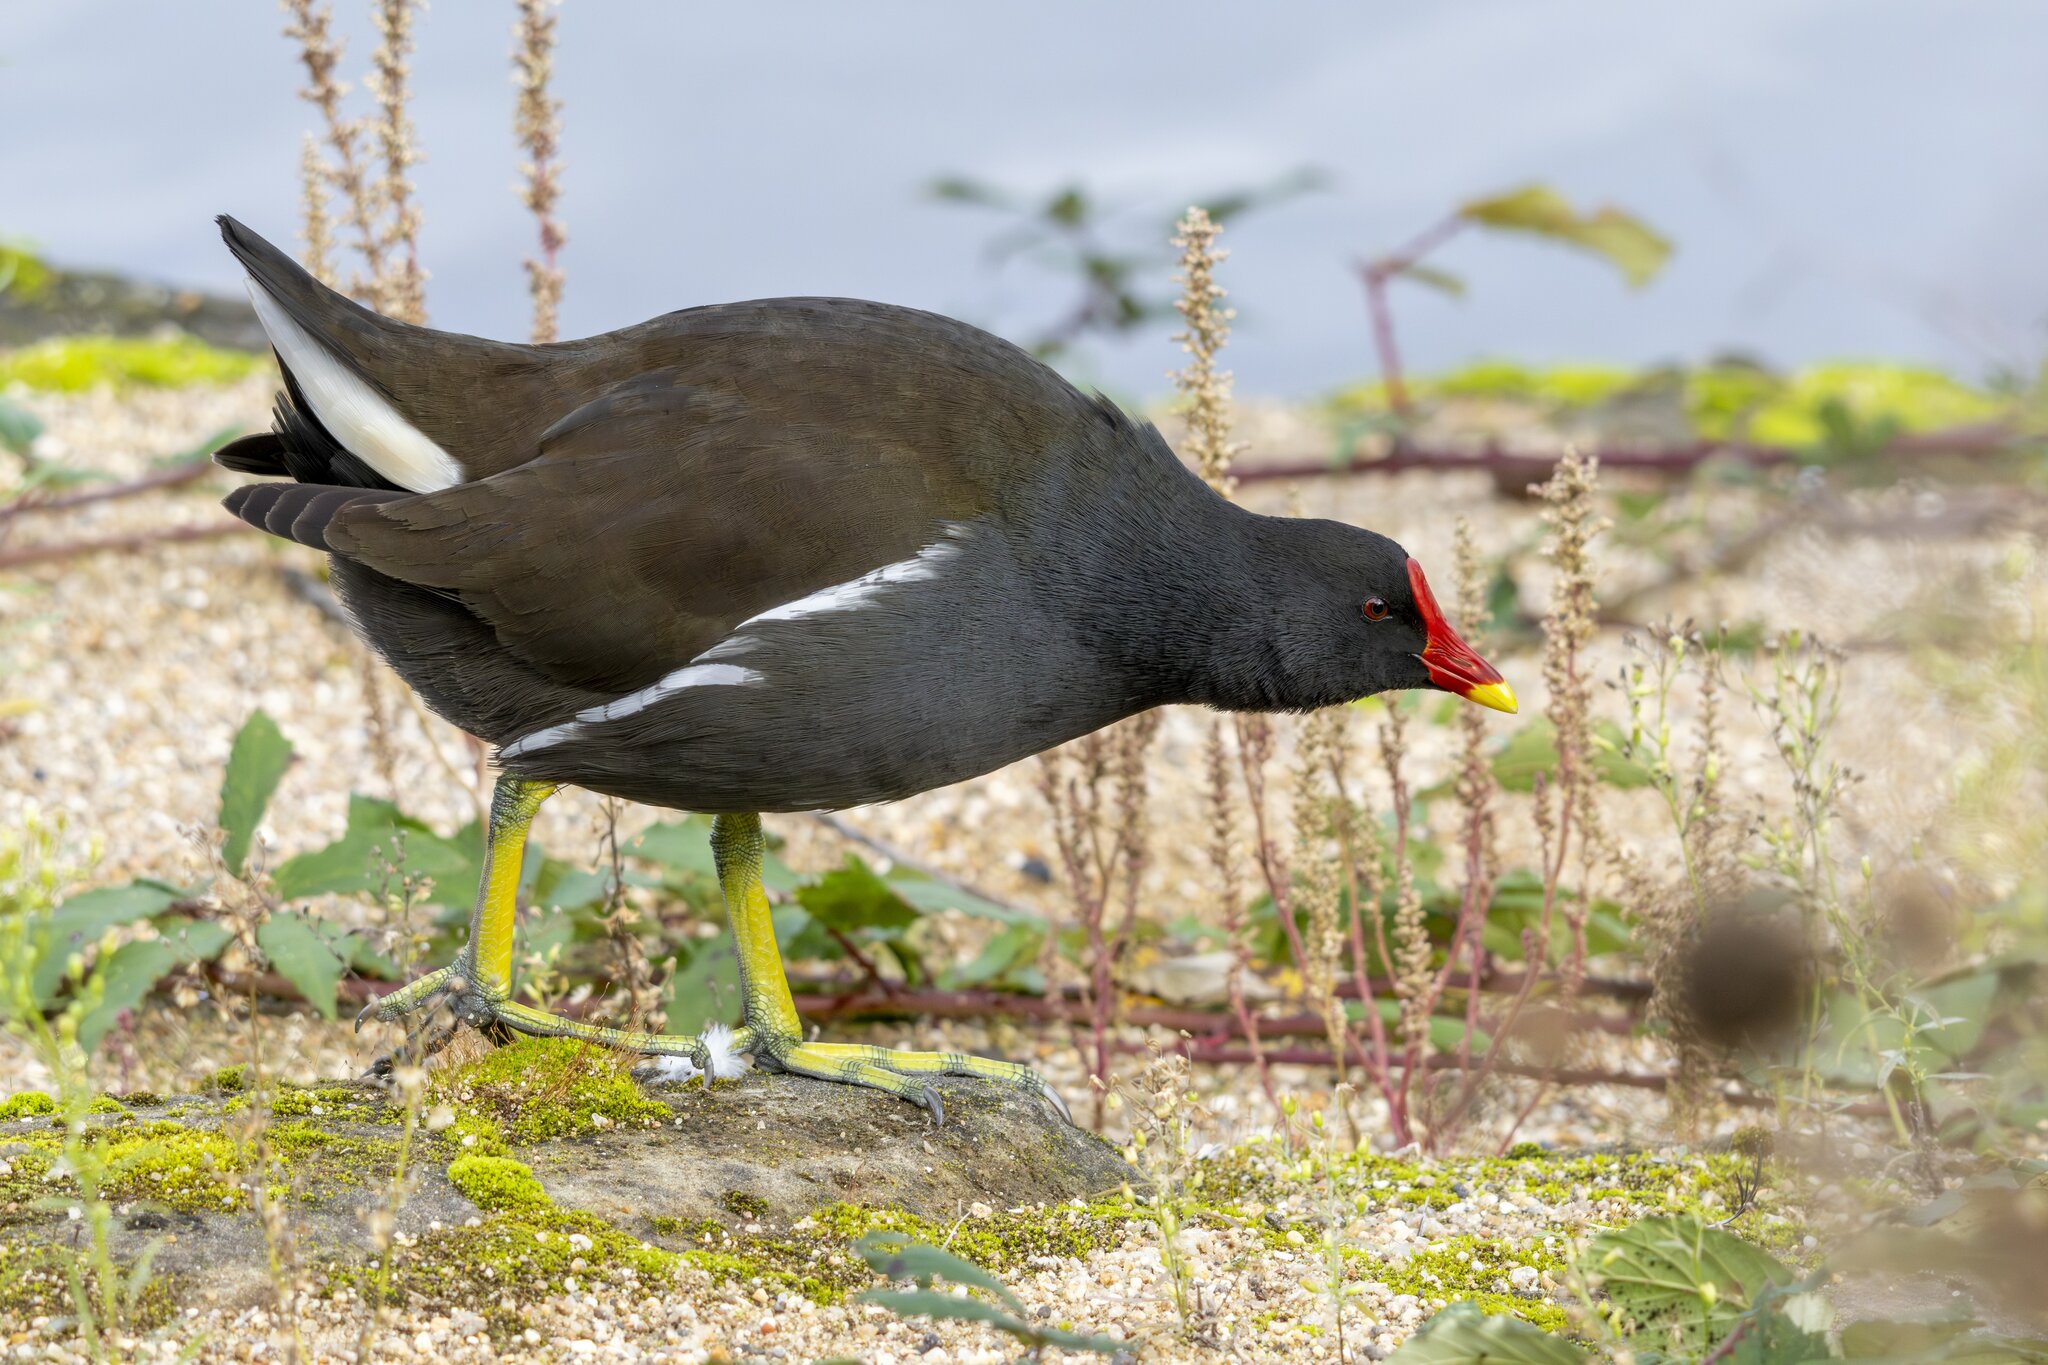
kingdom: Animalia
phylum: Chordata
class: Aves
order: Gruiformes
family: Rallidae
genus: Gallinula
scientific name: Gallinula chloropus
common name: Common moorhen
